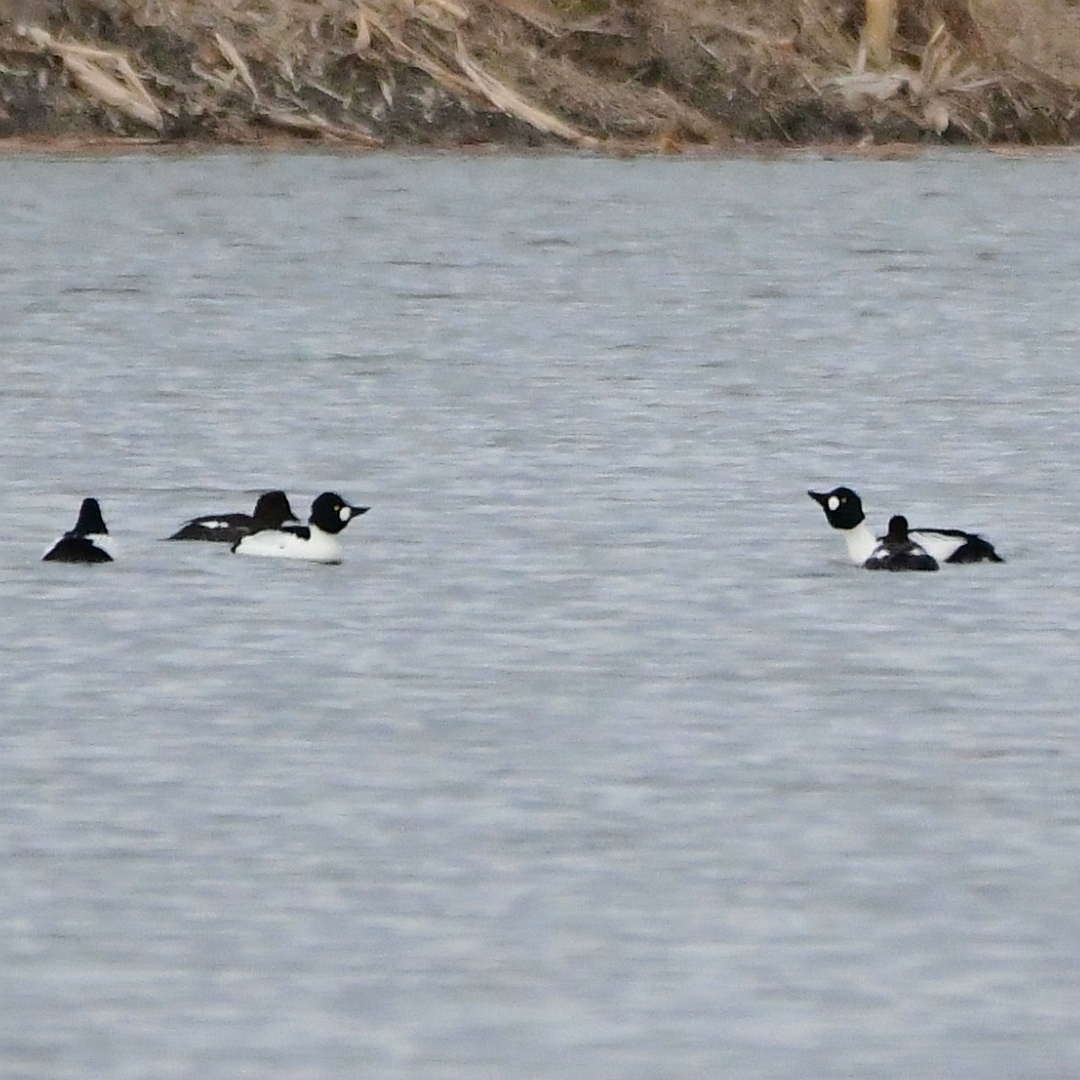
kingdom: Animalia
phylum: Chordata
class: Aves
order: Anseriformes
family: Anatidae
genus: Bucephala
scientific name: Bucephala clangula
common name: Common goldeneye
